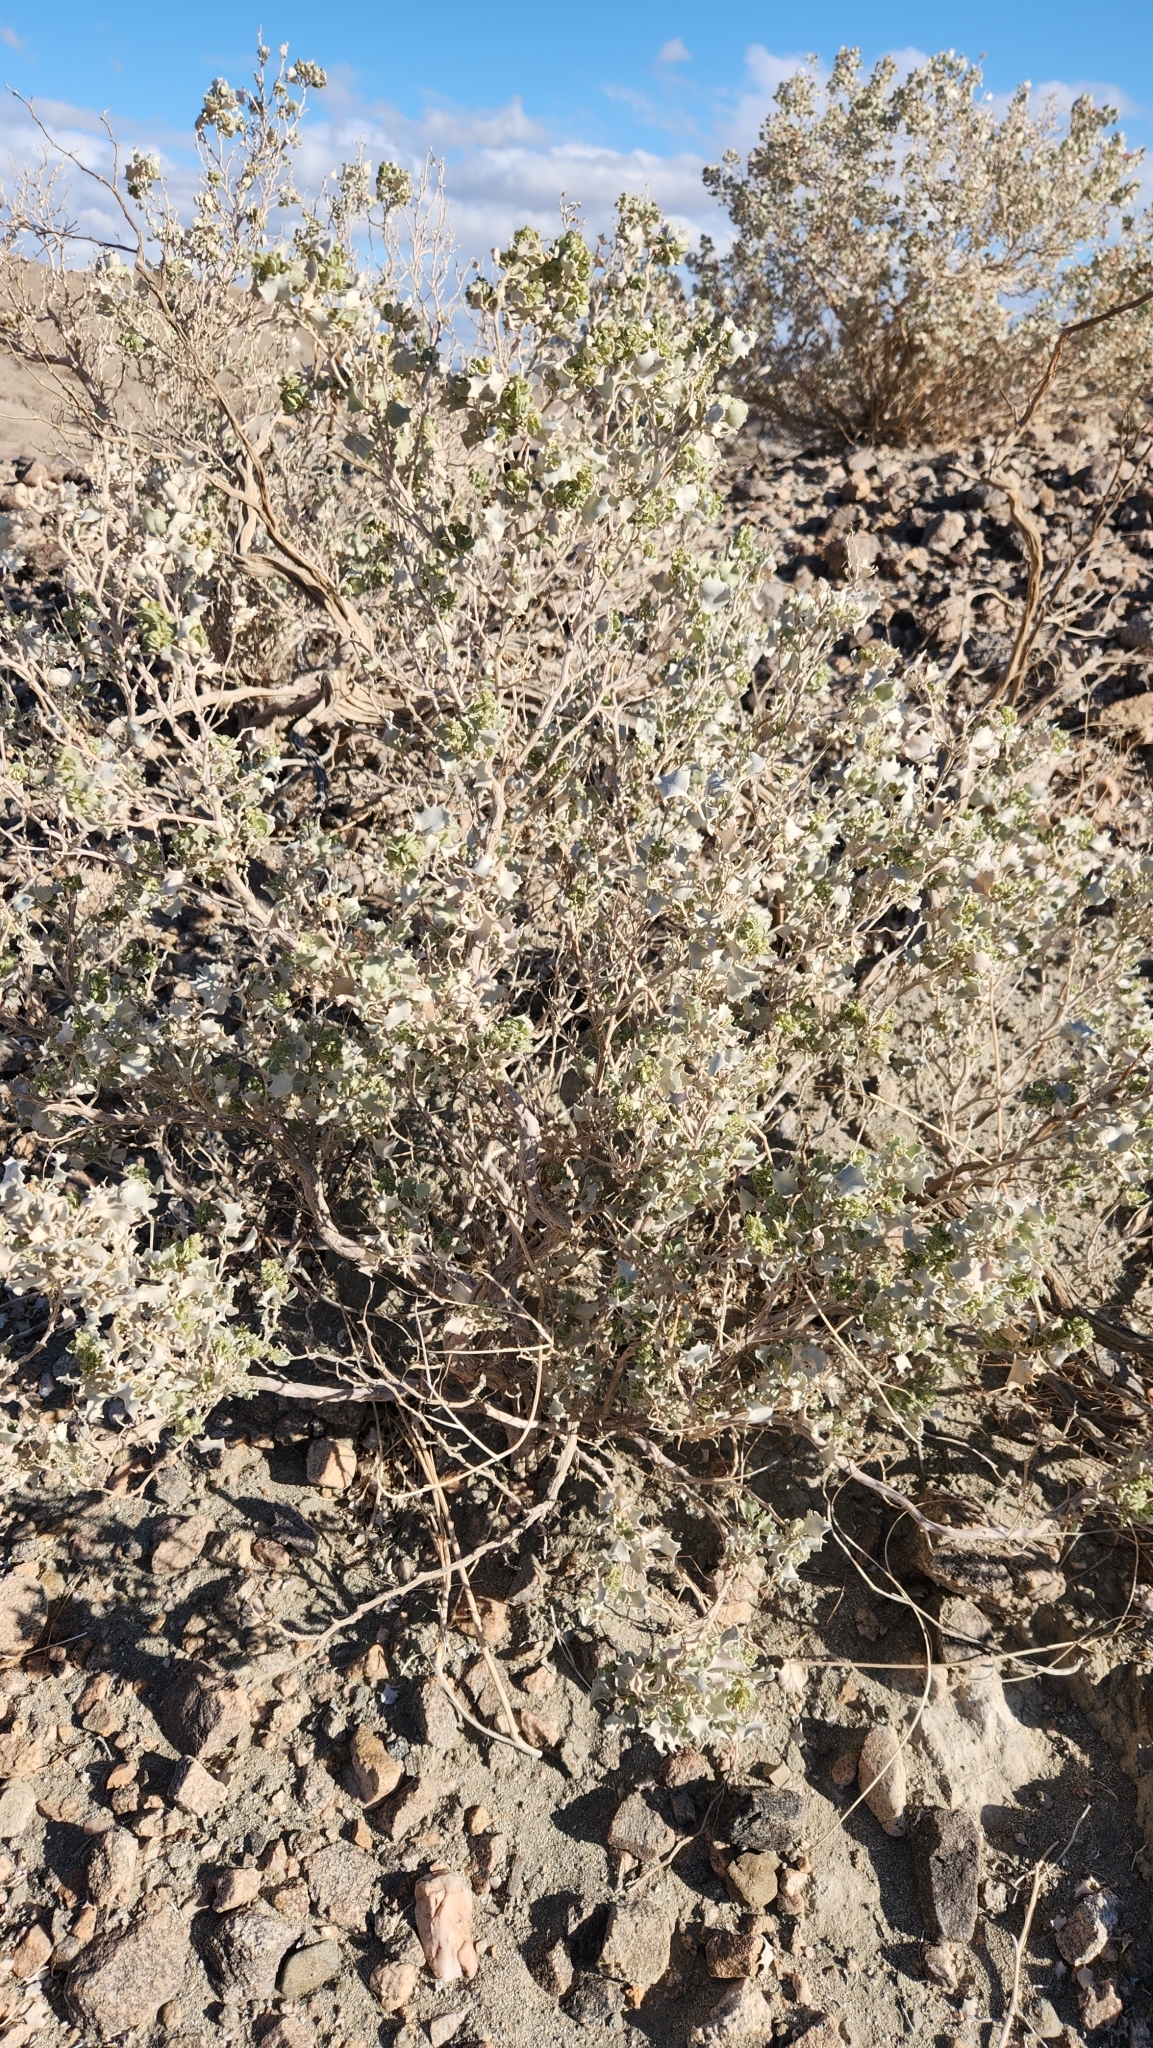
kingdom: Plantae
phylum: Tracheophyta
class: Magnoliopsida
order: Caryophyllales
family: Amaranthaceae
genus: Atriplex
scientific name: Atriplex hymenelytra
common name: Desert-holly
